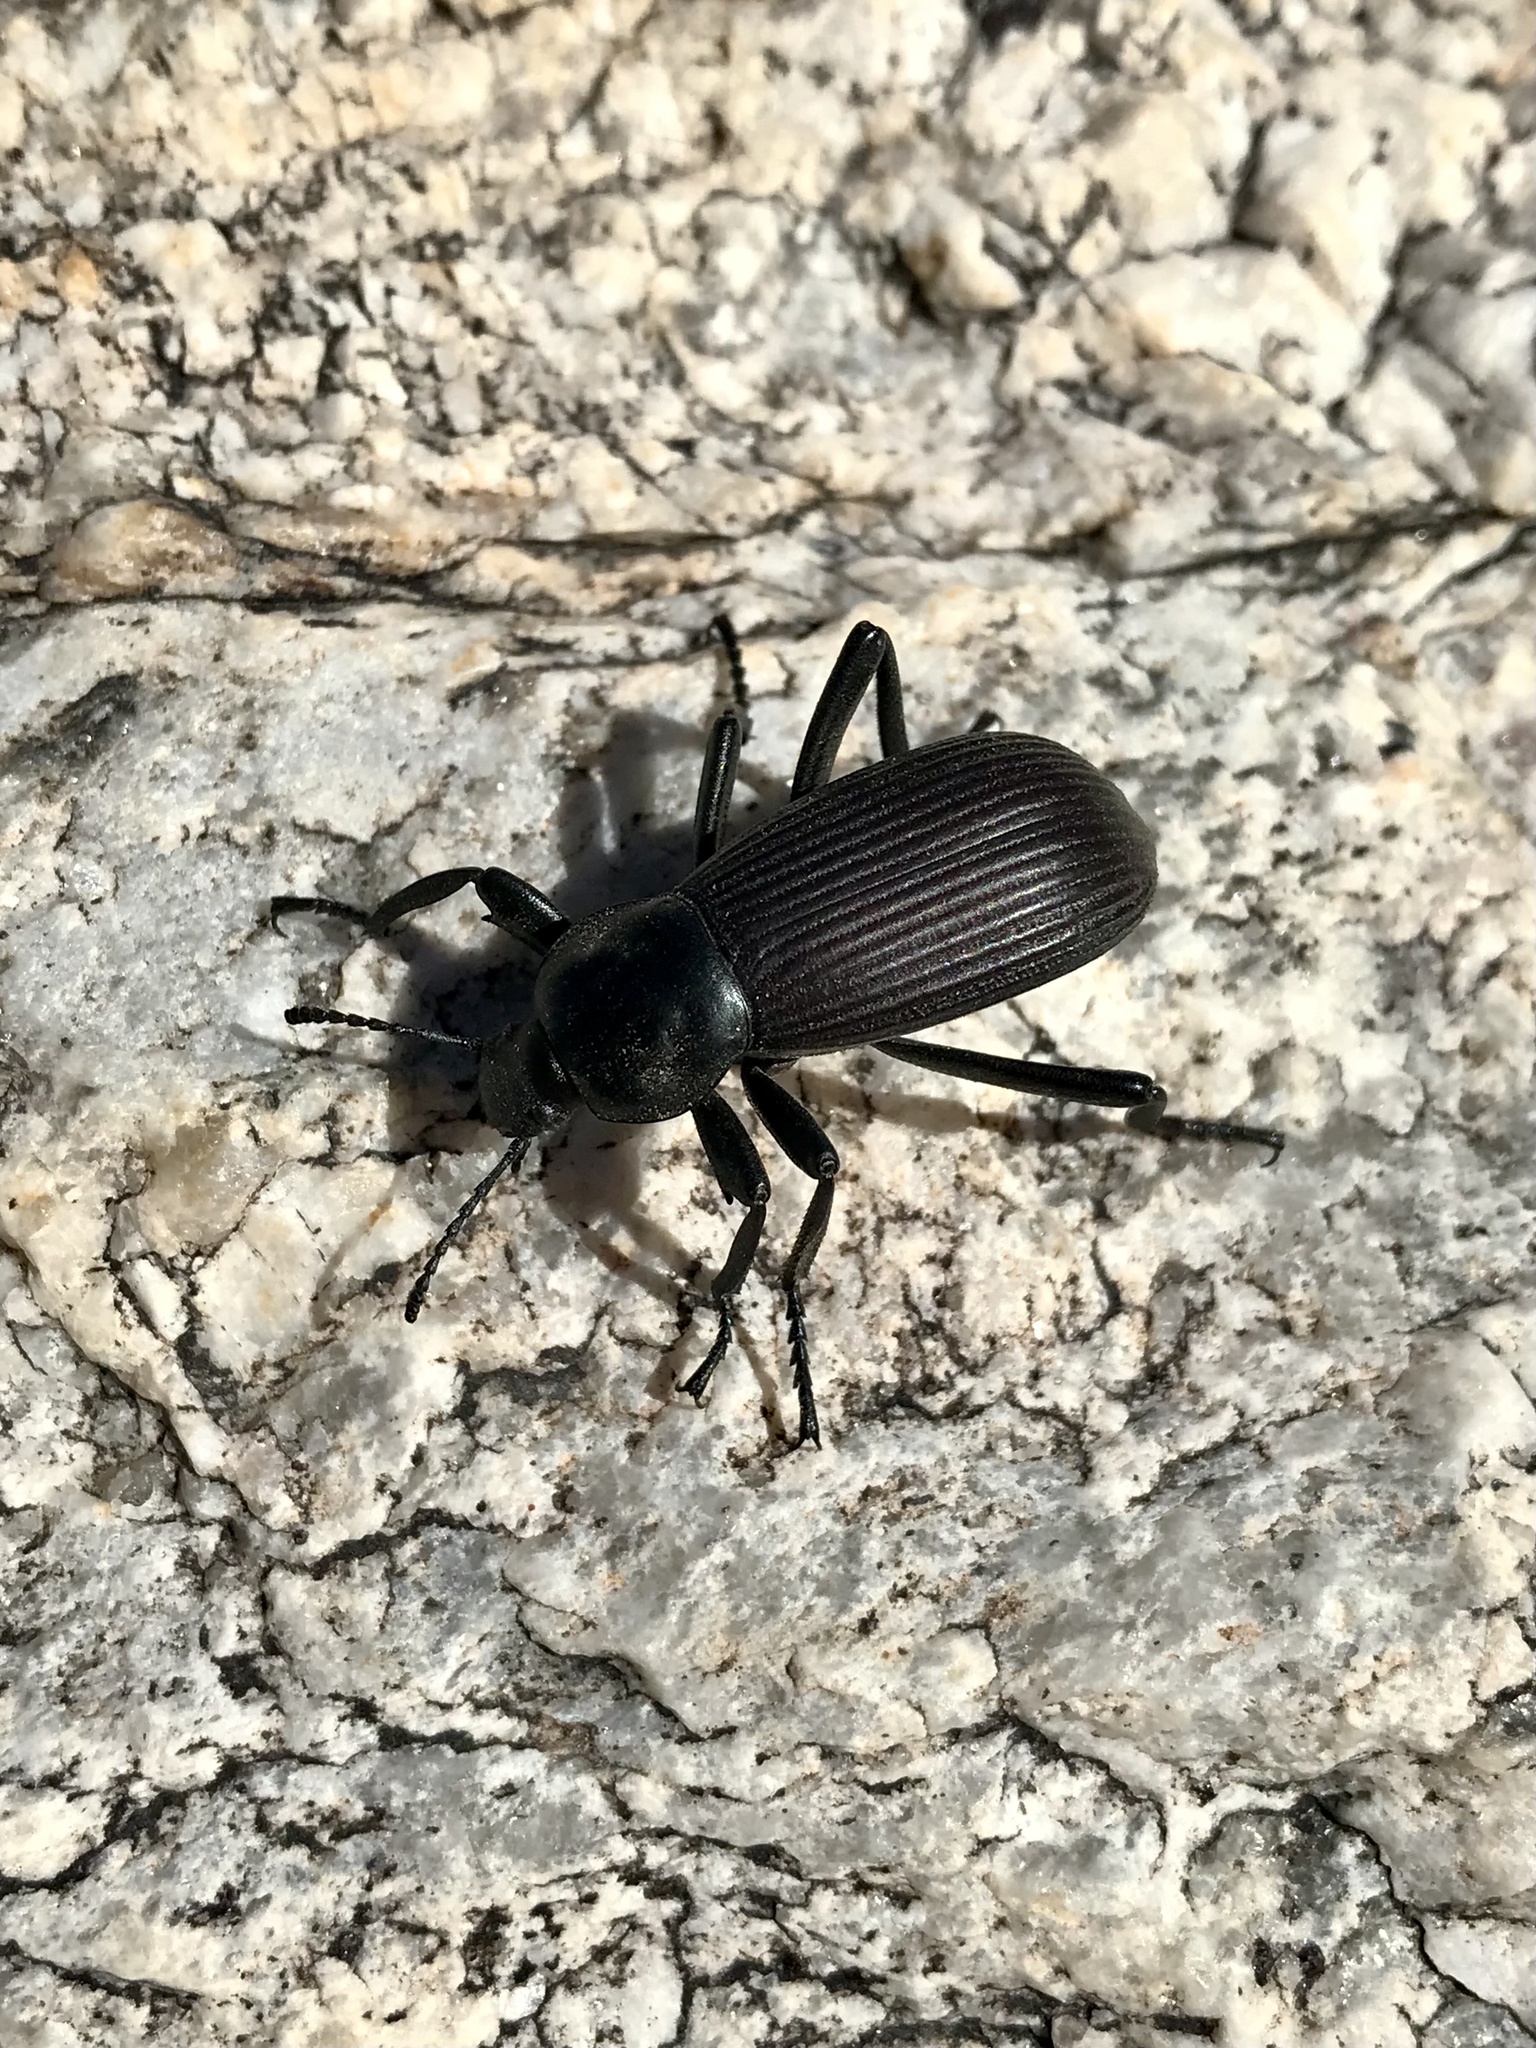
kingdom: Animalia
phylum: Arthropoda
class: Insecta
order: Coleoptera
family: Tenebrionidae
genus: Eleodes
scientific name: Eleodes obscura
